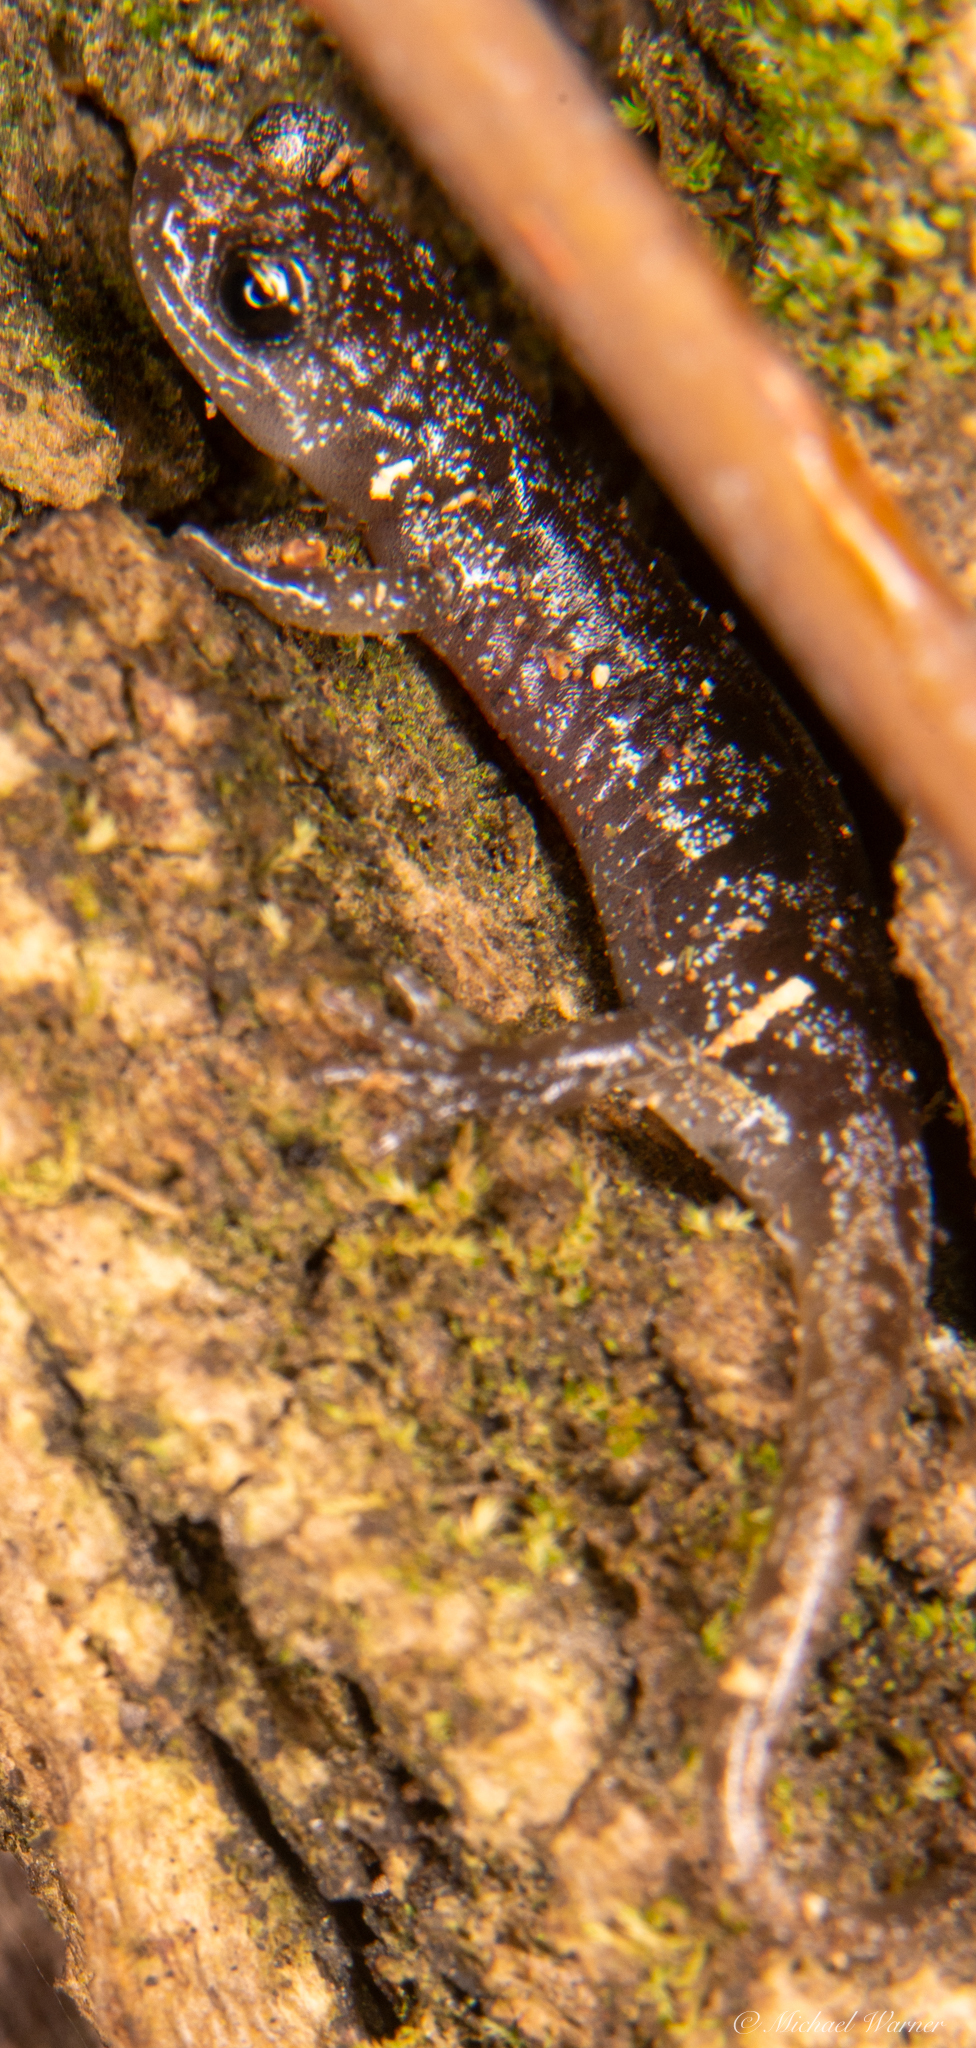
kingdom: Animalia
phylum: Chordata
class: Amphibia
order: Caudata
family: Plethodontidae
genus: Aneides
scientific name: Aneides lugubris
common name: Arboreal salamander
